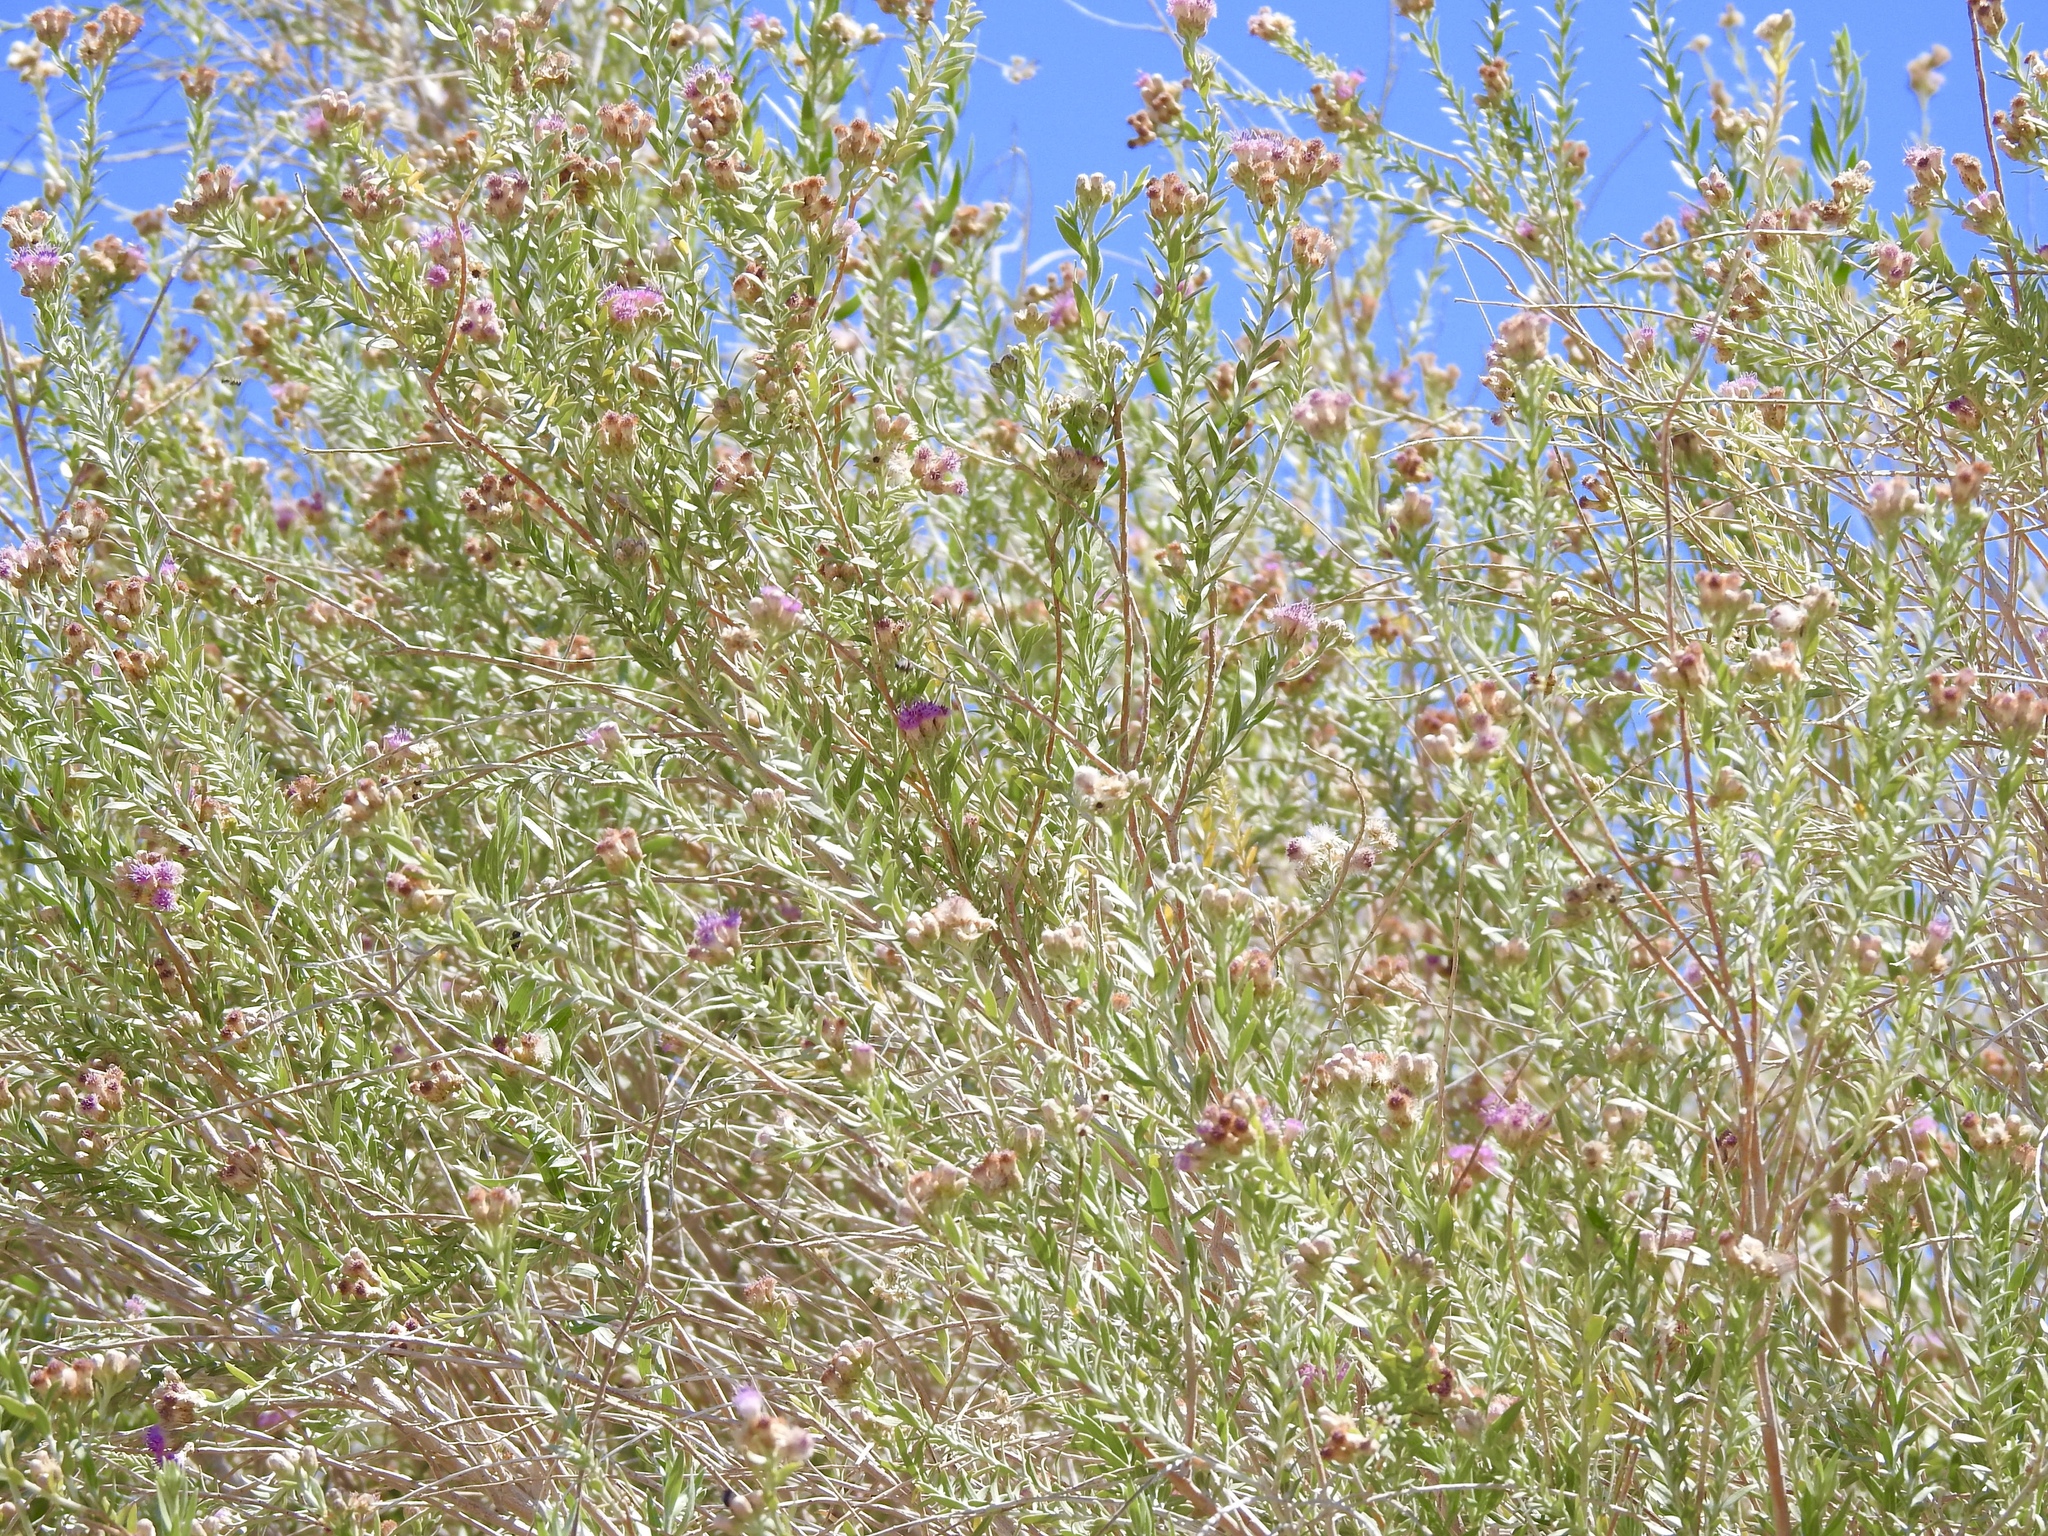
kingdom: Plantae
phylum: Tracheophyta
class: Magnoliopsida
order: Asterales
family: Asteraceae
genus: Pluchea
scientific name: Pluchea sericea
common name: Arrow-weed
